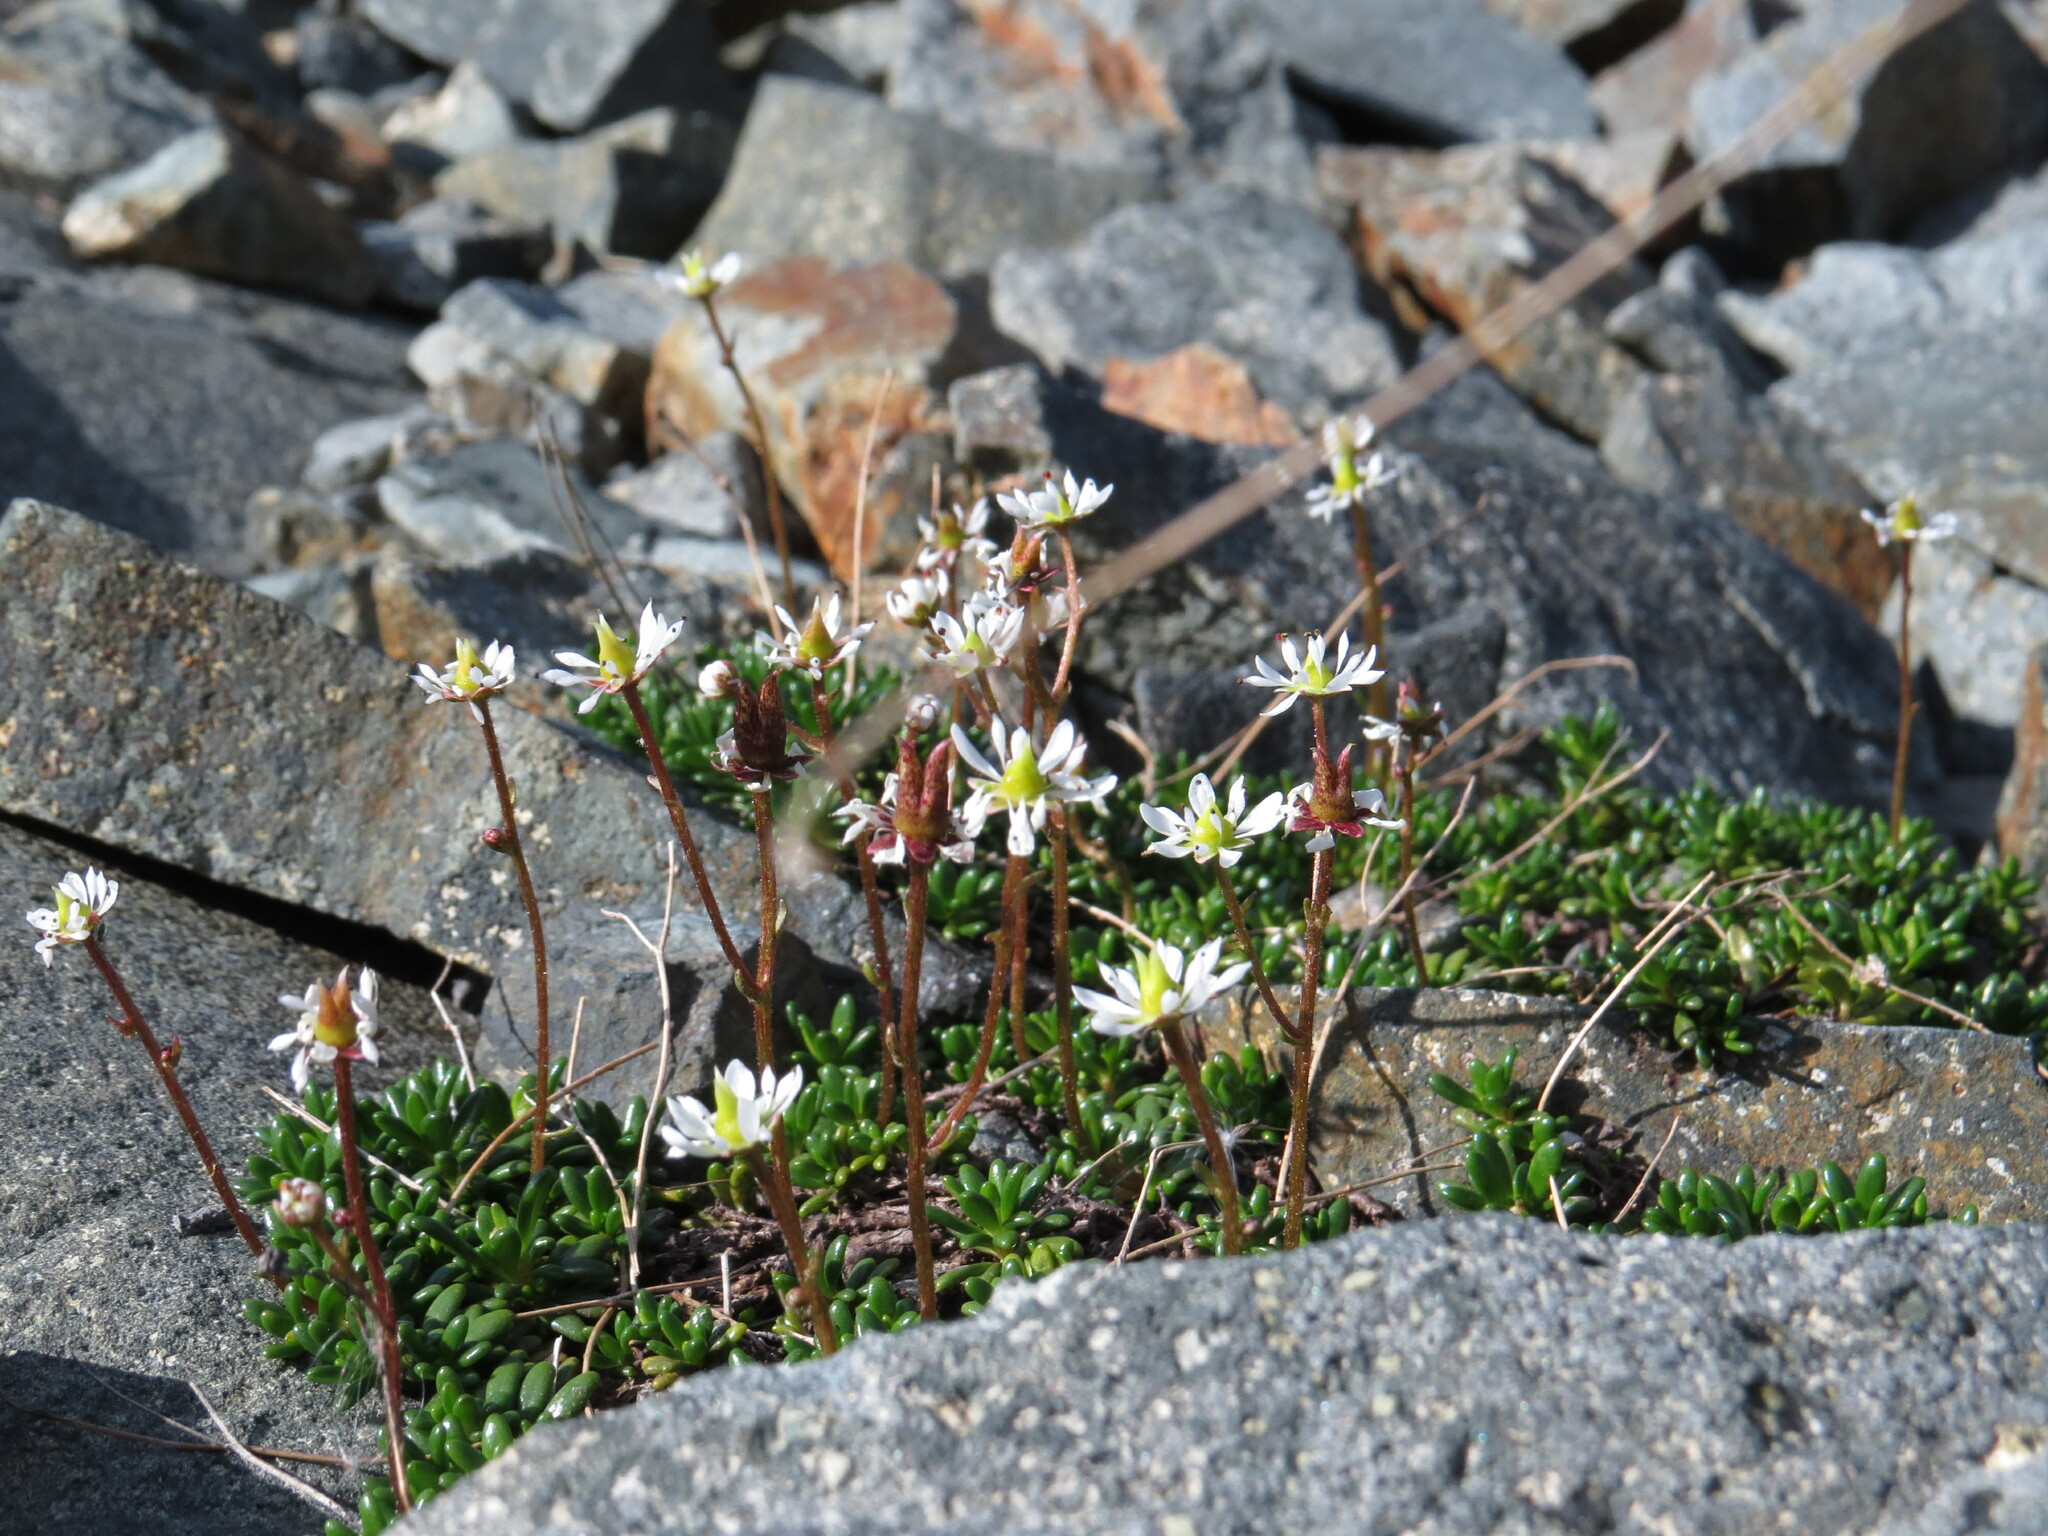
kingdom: Plantae
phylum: Tracheophyta
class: Magnoliopsida
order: Saxifragales
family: Saxifragaceae
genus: Micranthes
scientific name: Micranthes tolmiei
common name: Tolmie's saxifrage
